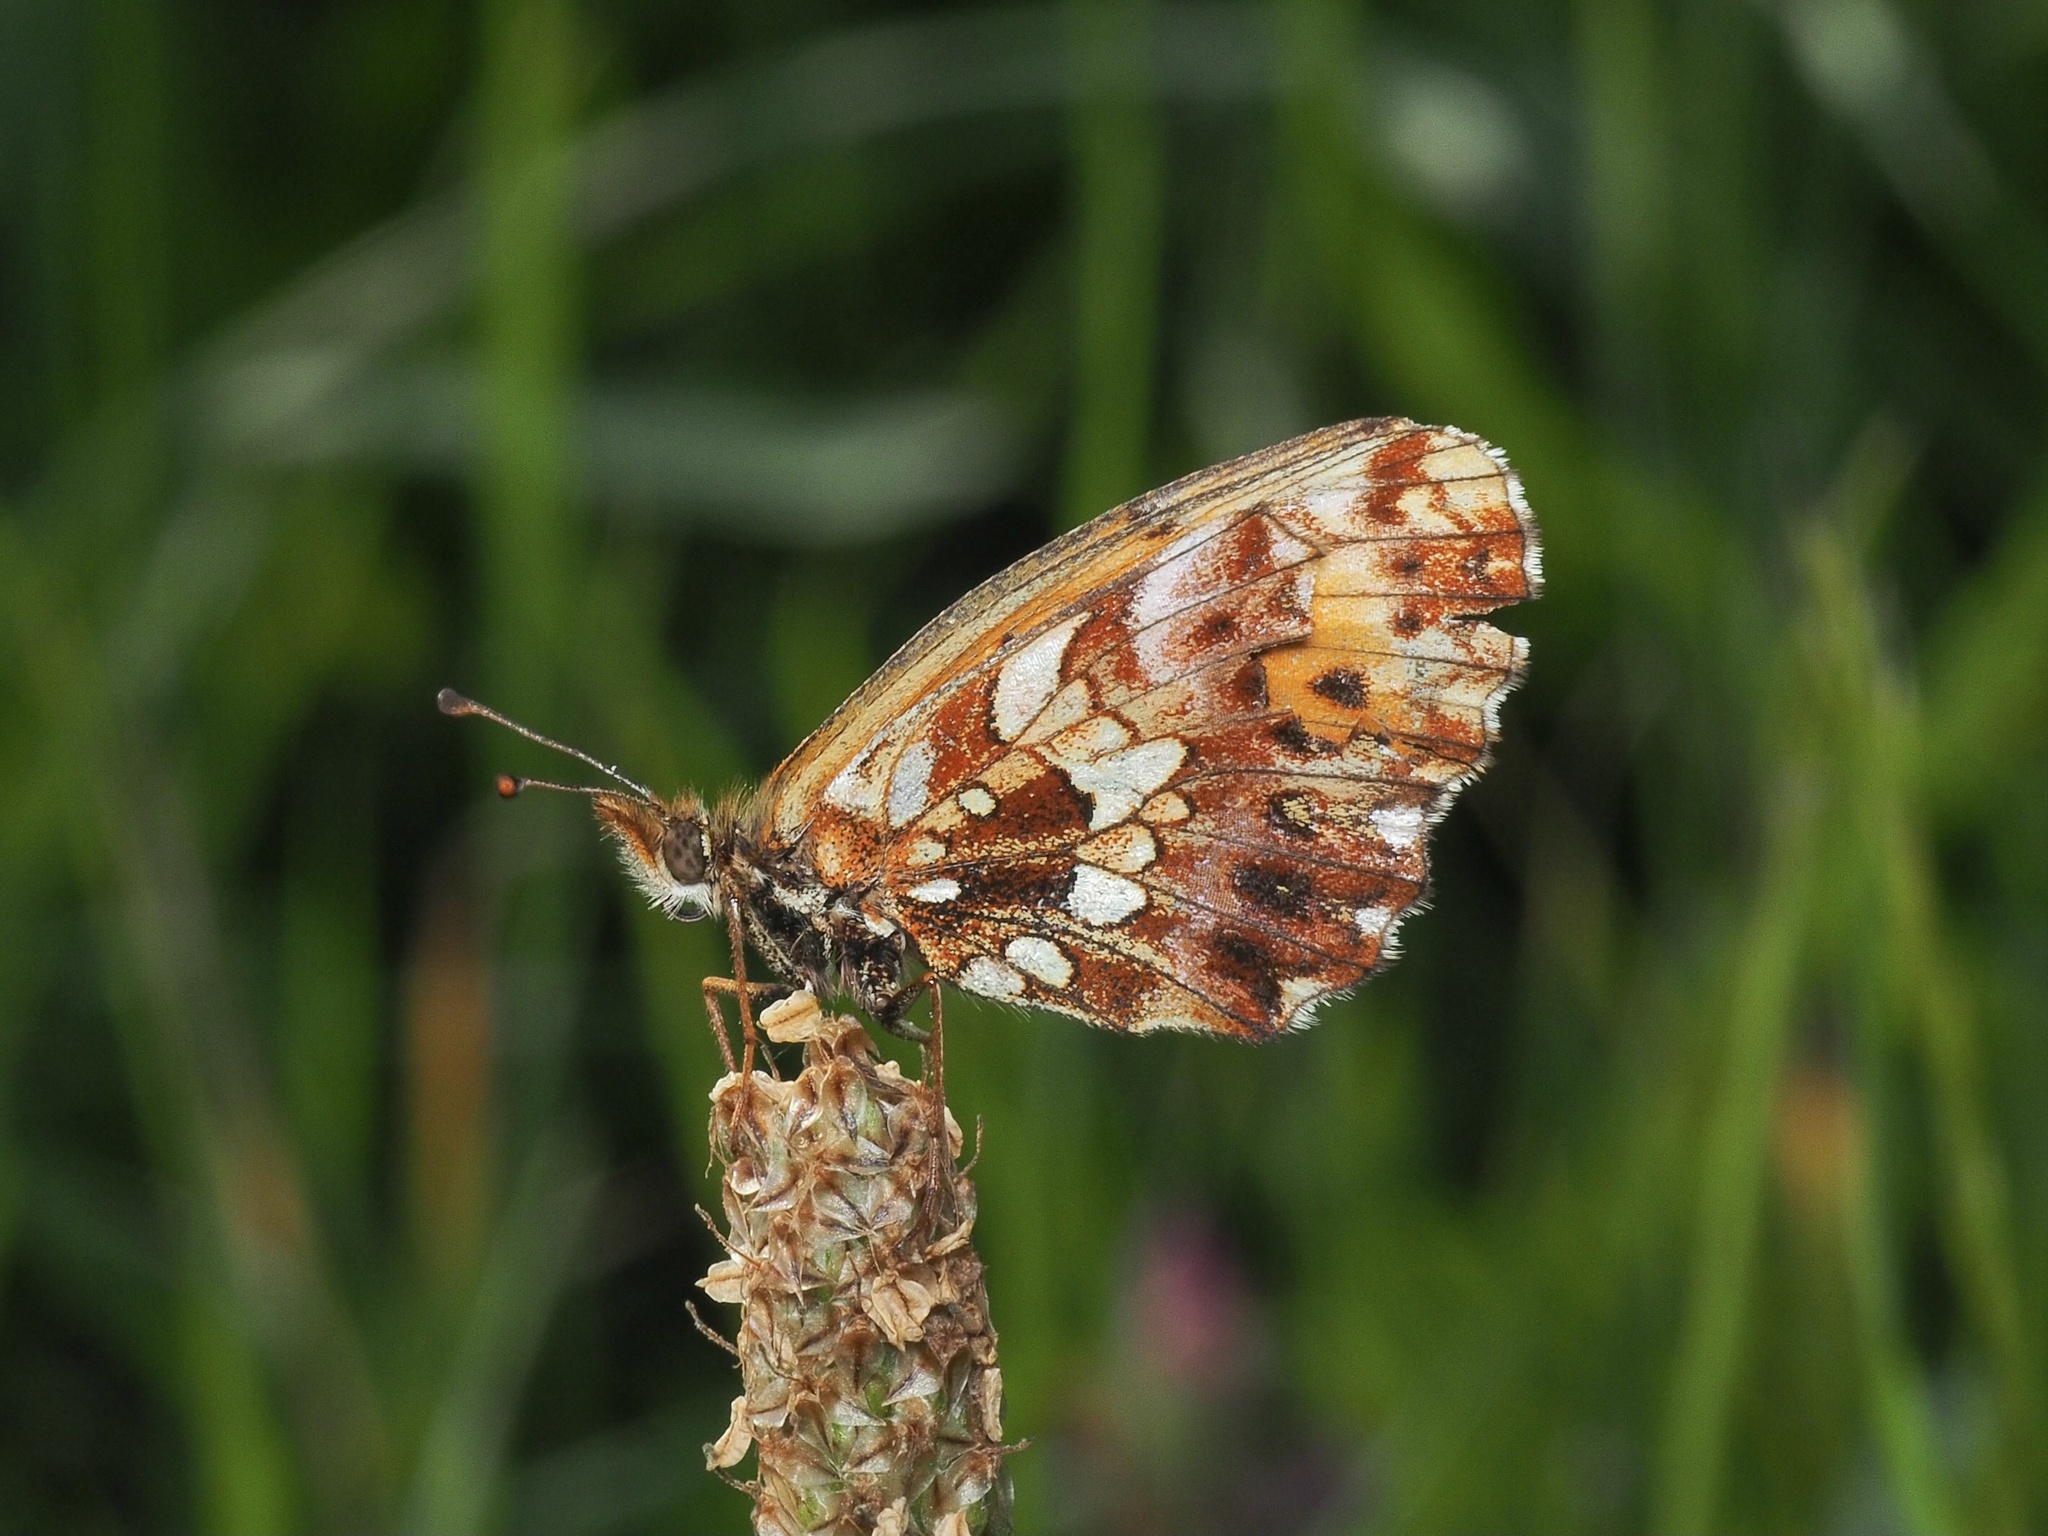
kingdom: Animalia
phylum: Arthropoda
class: Insecta
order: Lepidoptera
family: Nymphalidae
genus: Boloria
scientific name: Boloria dia
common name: Weaver's fritillary
